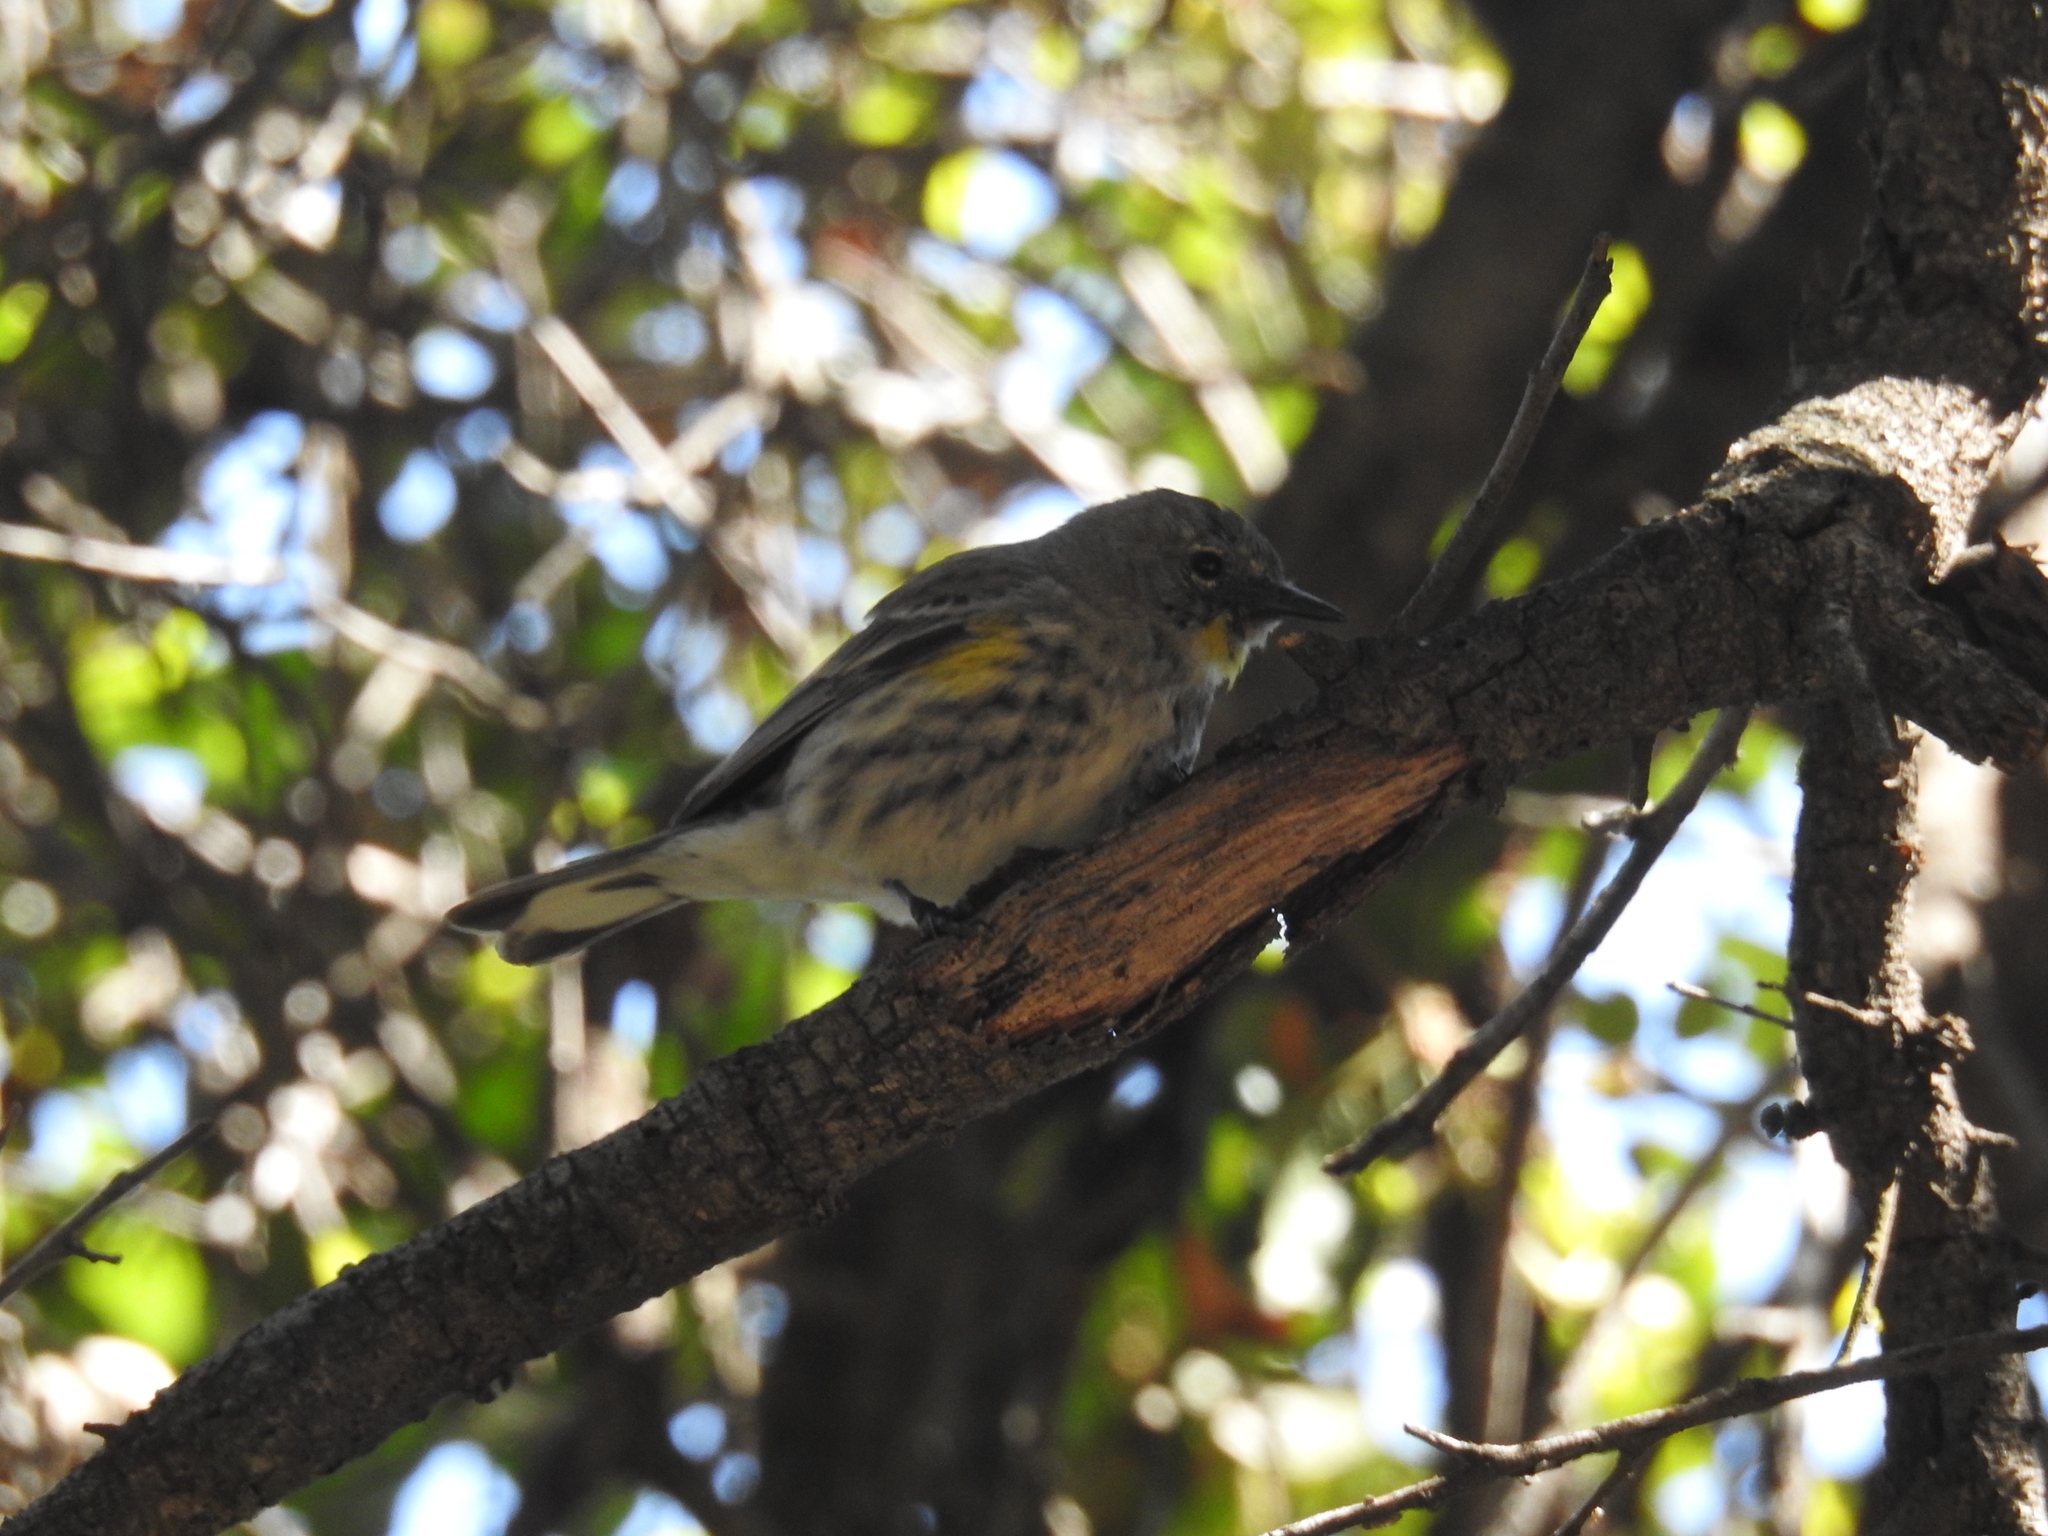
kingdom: Animalia
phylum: Chordata
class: Aves
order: Passeriformes
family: Parulidae
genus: Setophaga
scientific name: Setophaga coronata
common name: Myrtle warbler
